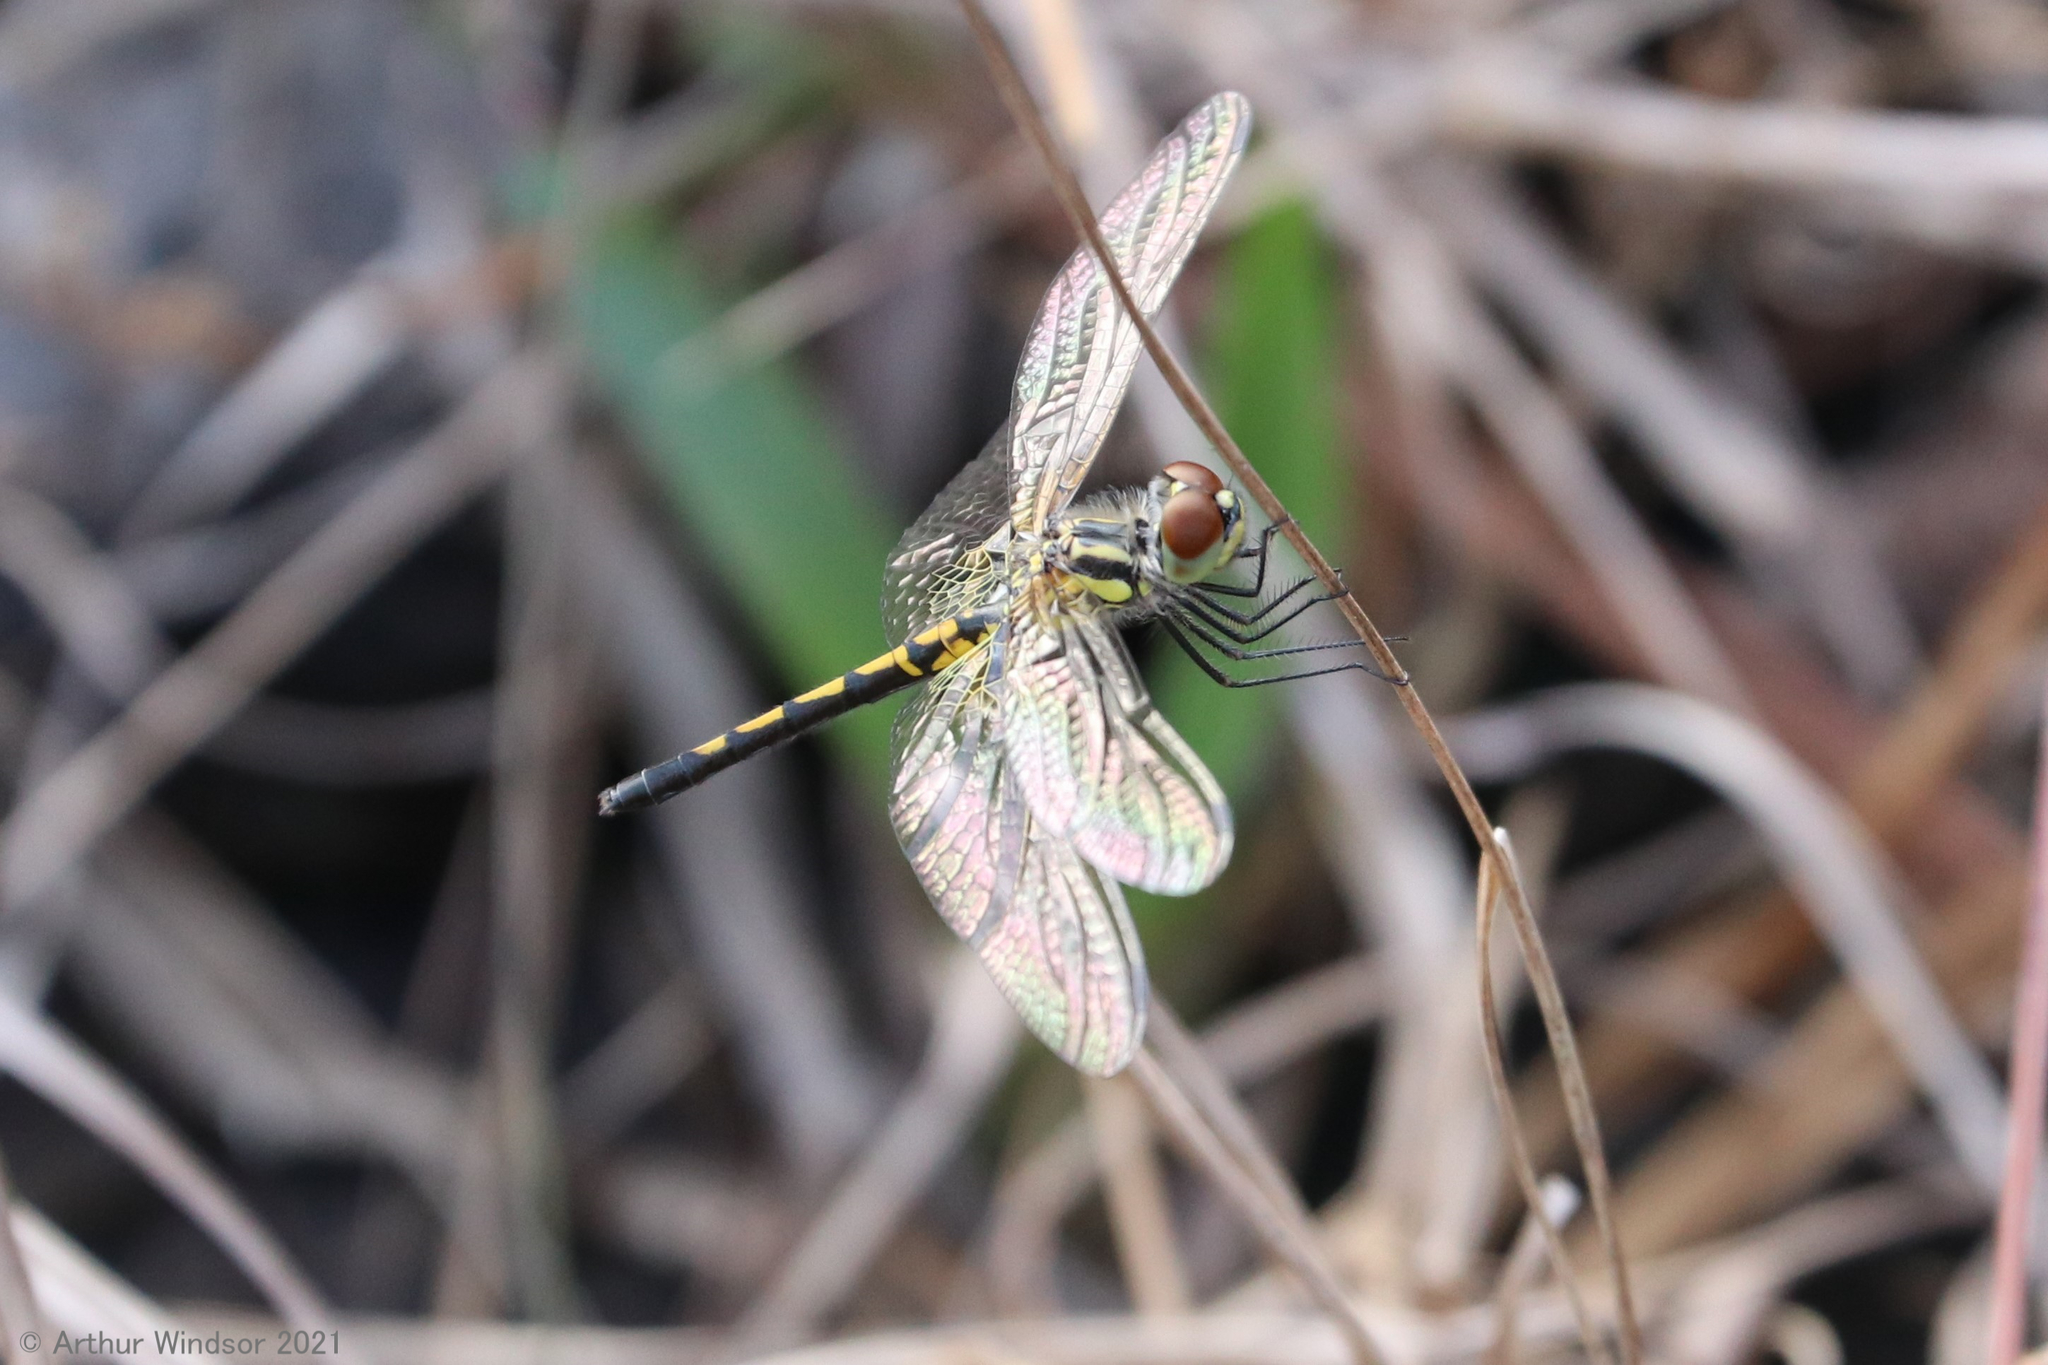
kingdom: Animalia
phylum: Arthropoda
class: Insecta
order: Odonata
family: Libellulidae
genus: Celithemis
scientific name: Celithemis ornata
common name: Ornate pennant
